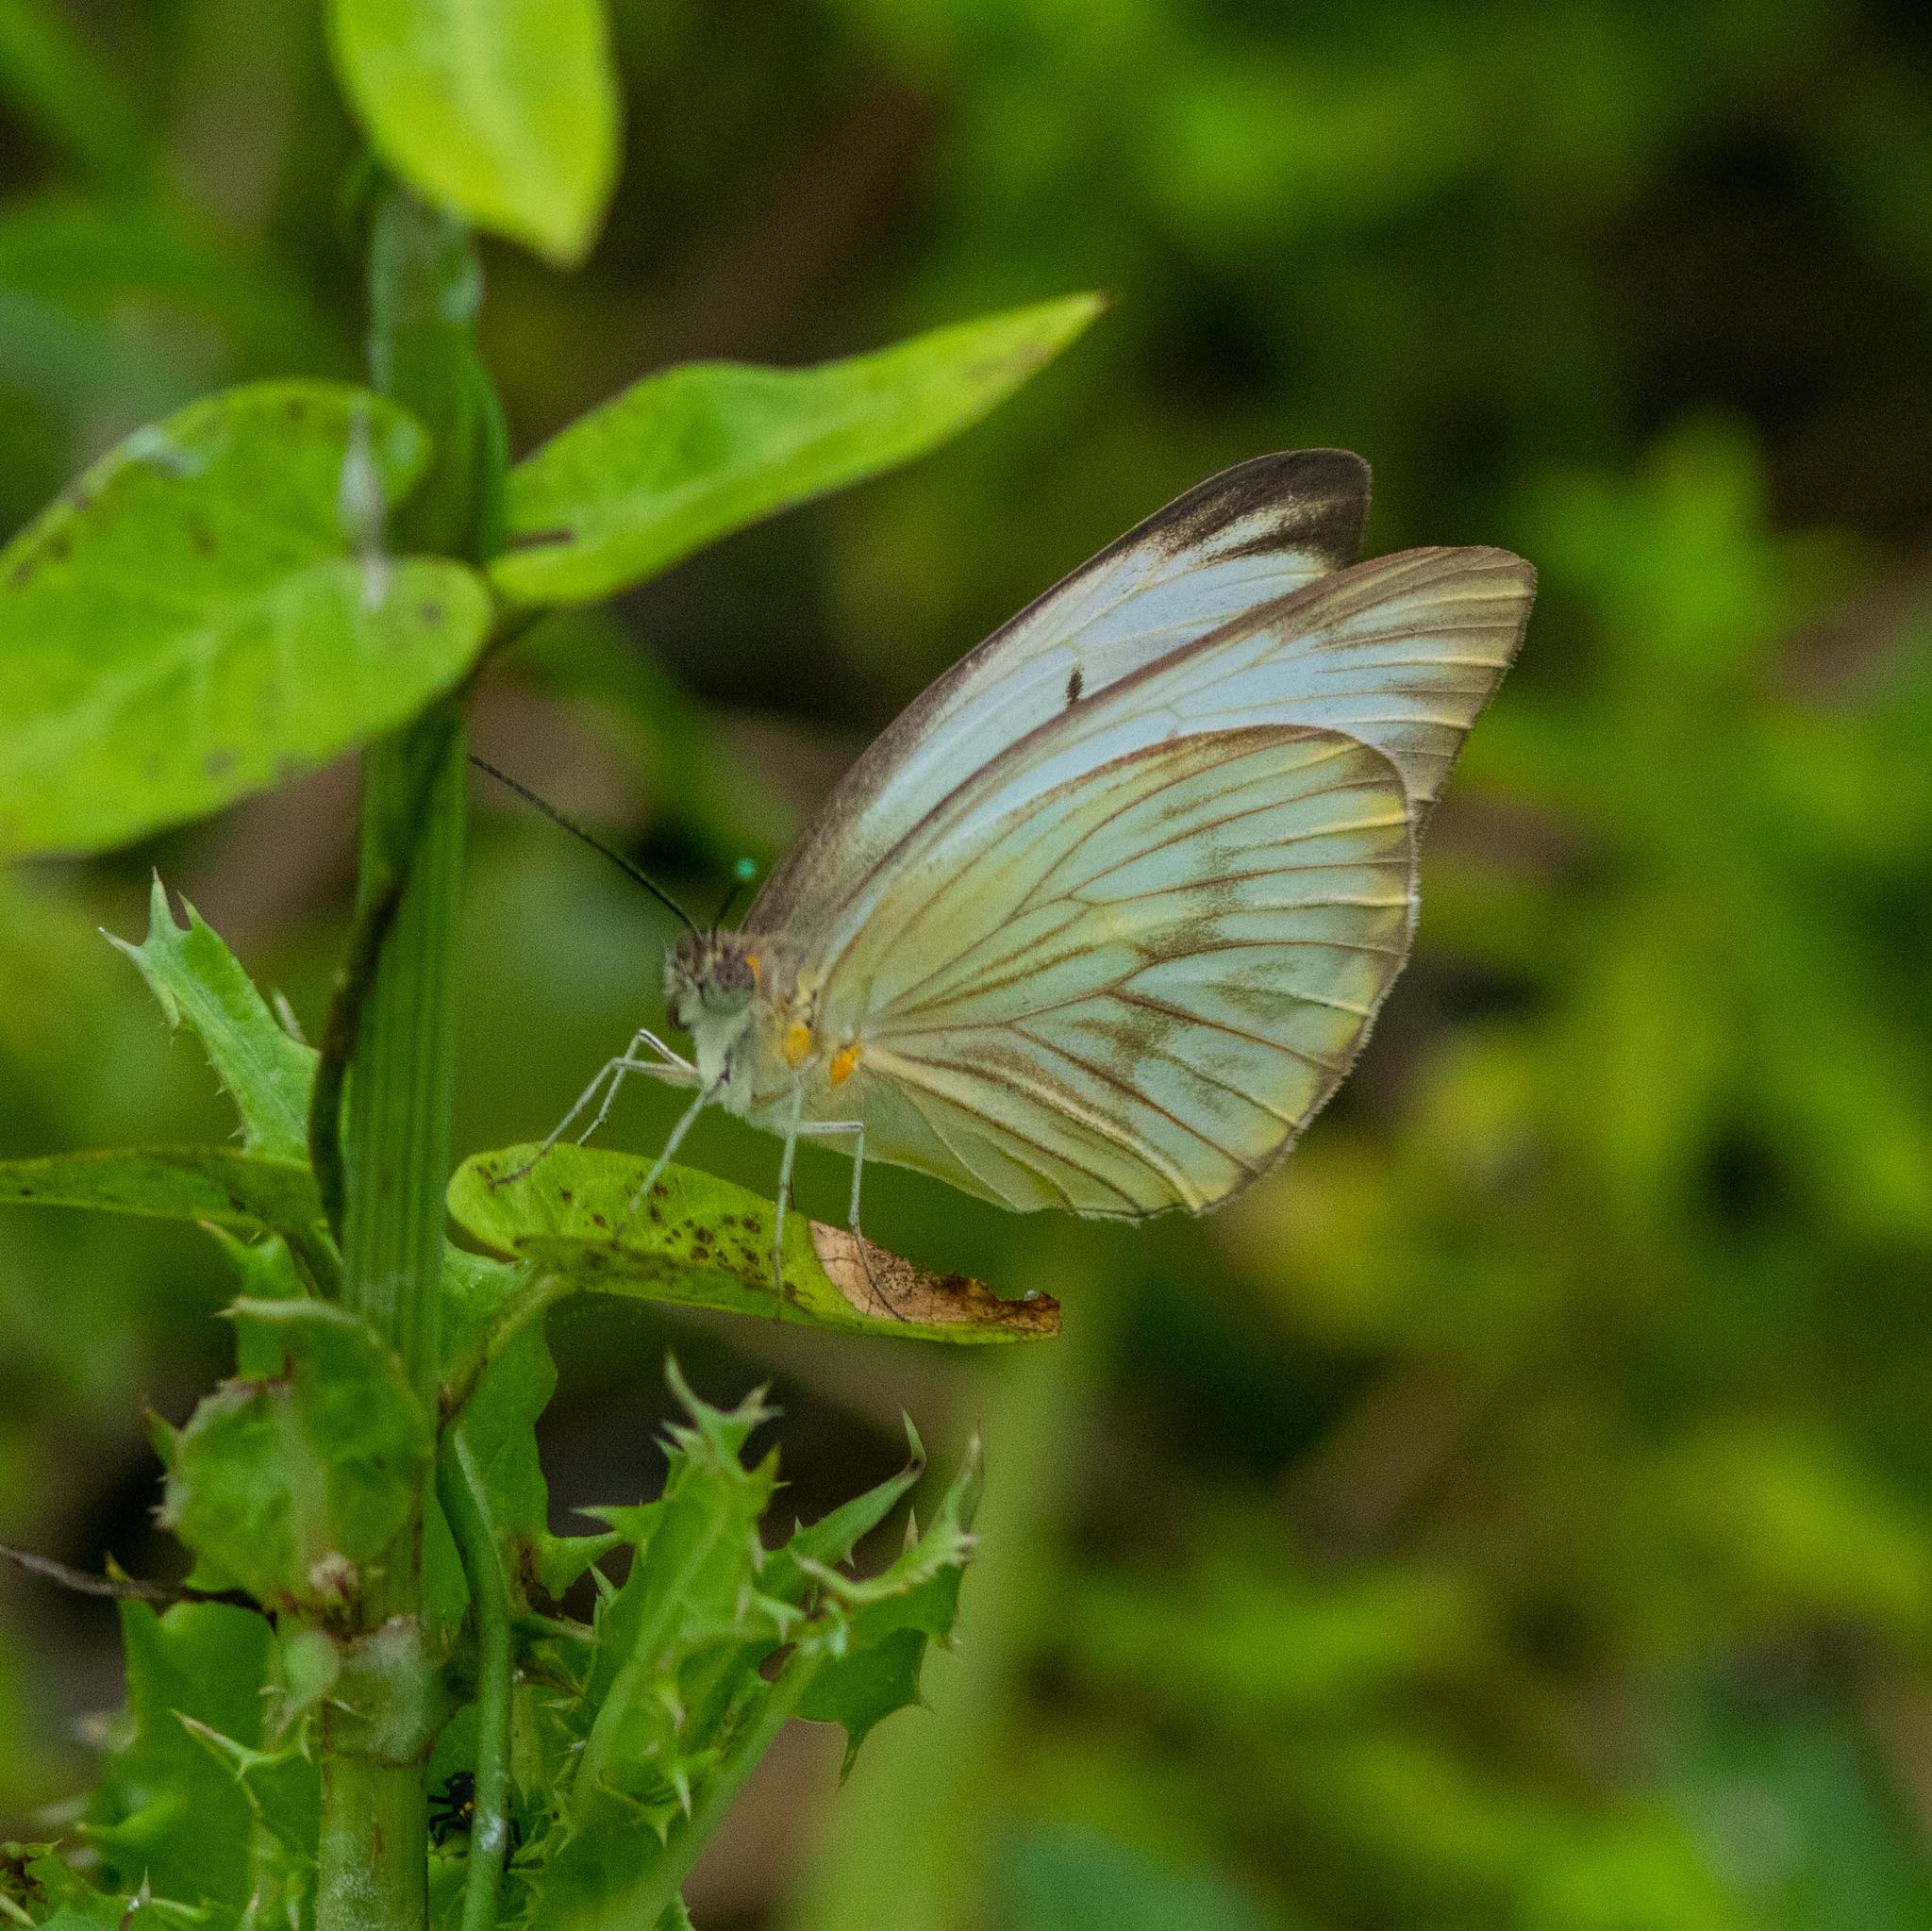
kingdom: Animalia
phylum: Arthropoda
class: Insecta
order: Lepidoptera
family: Pieridae
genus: Ascia
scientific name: Ascia monuste
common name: Great southern white
